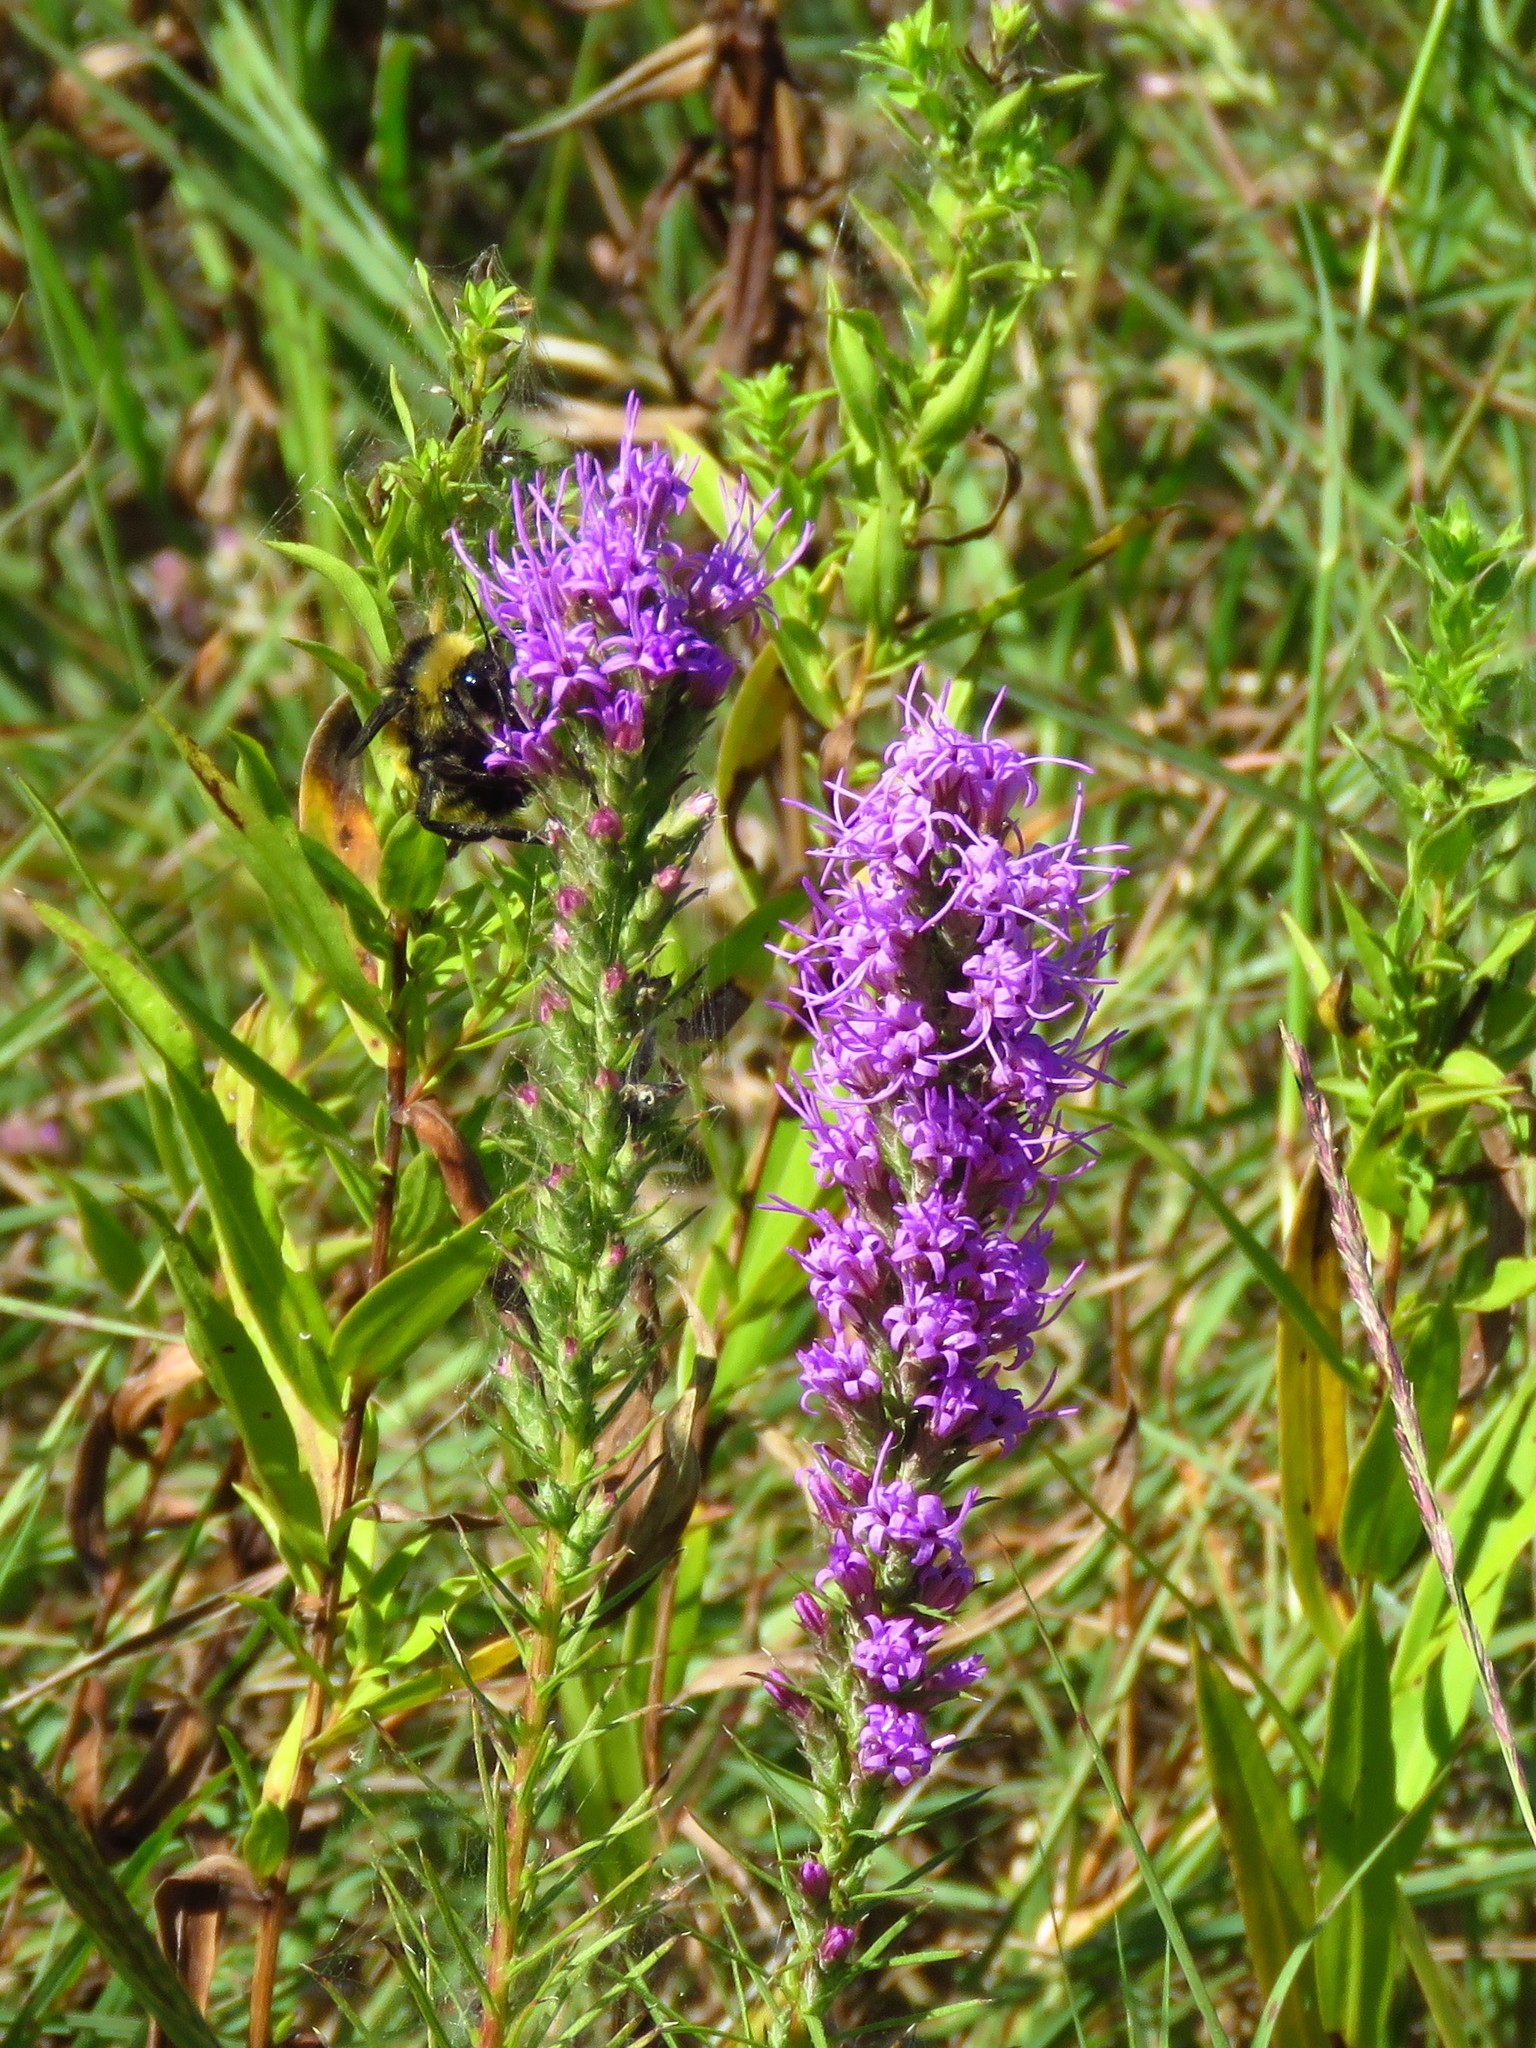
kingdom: Plantae
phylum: Tracheophyta
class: Magnoliopsida
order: Asterales
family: Asteraceae
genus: Liatris
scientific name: Liatris punctata
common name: Dotted gayfeather
